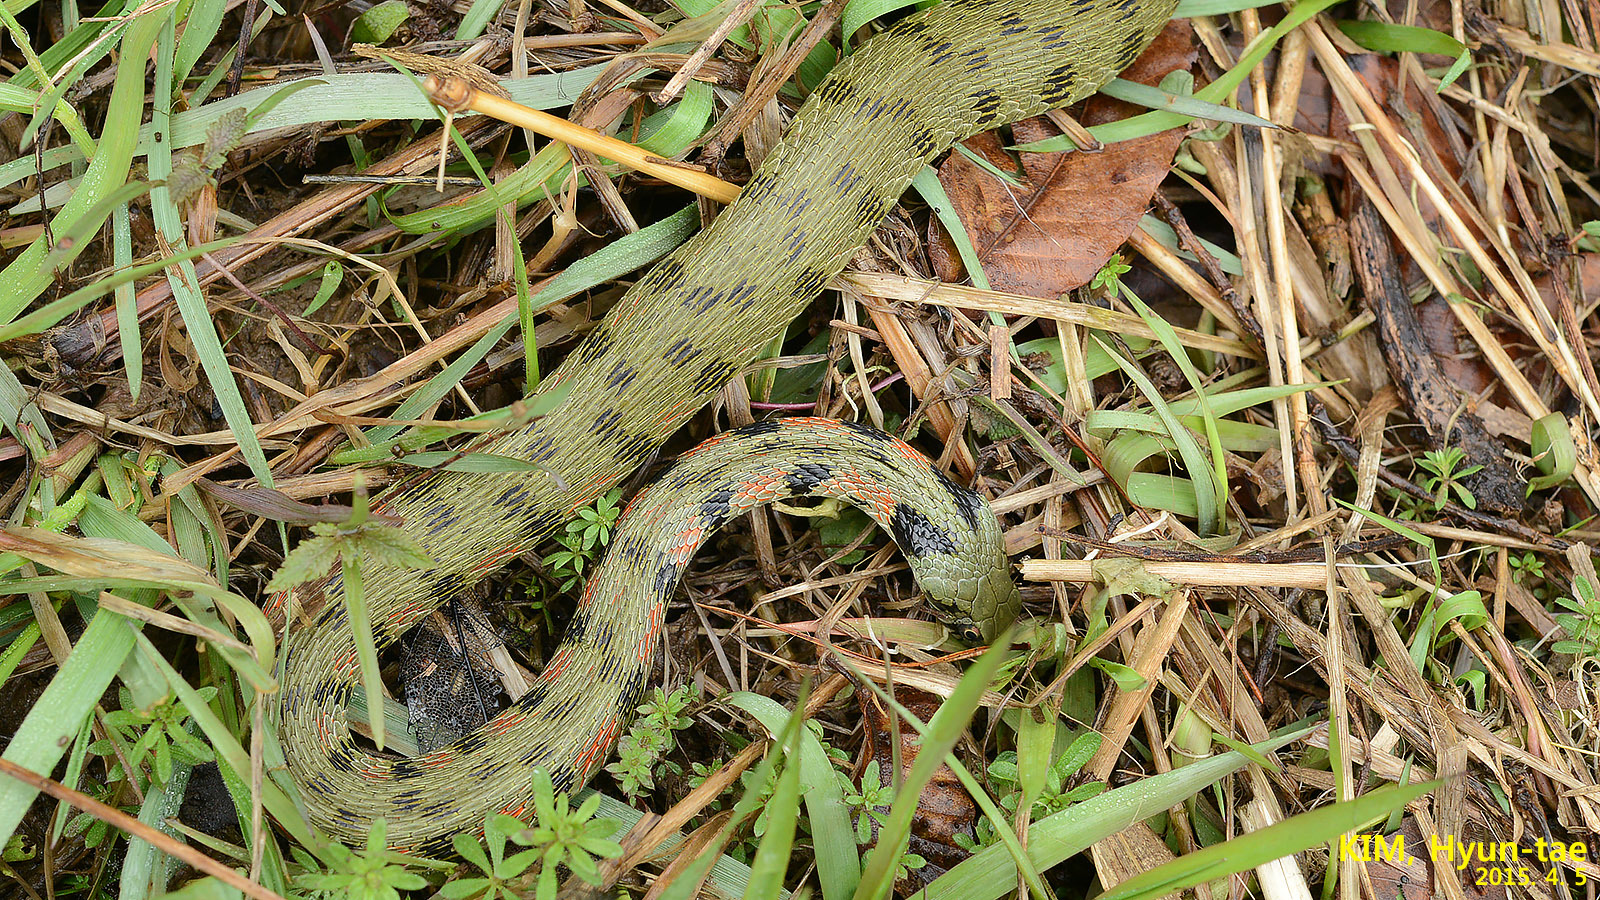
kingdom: Animalia
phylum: Chordata
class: Squamata
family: Colubridae
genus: Rhabdophis
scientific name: Rhabdophis tigrinus
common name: Tiger keelback
